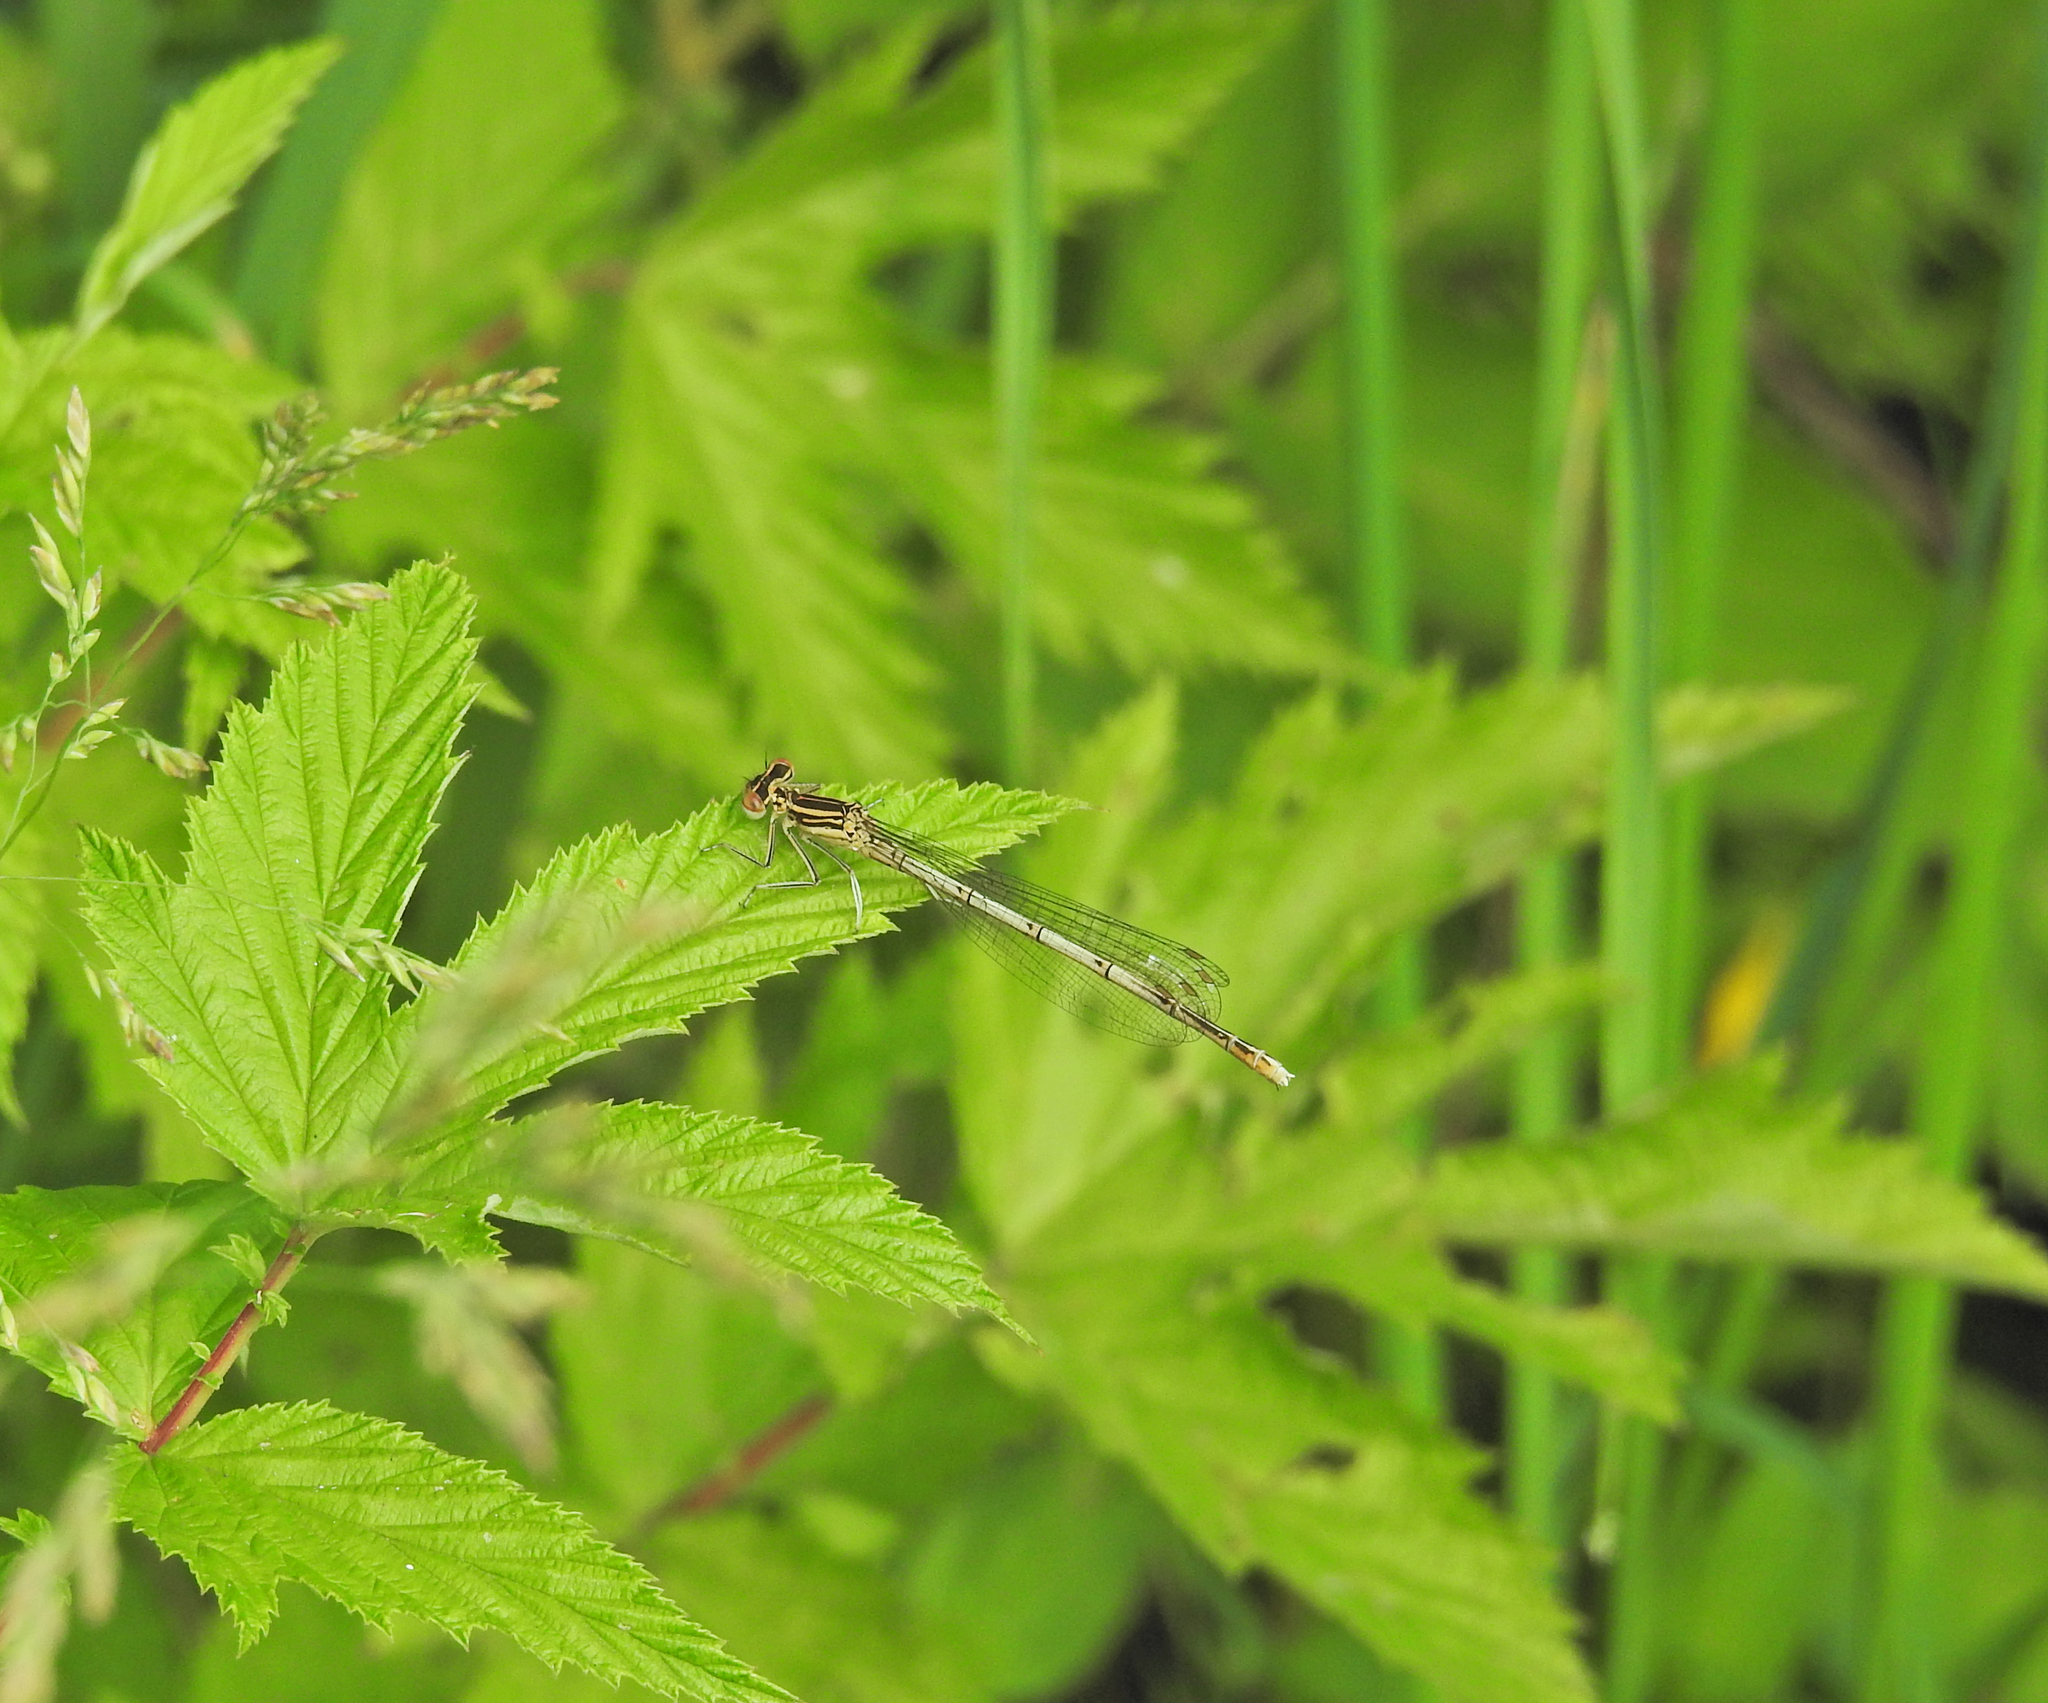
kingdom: Animalia
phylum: Arthropoda
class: Insecta
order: Odonata
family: Platycnemididae
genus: Platycnemis
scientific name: Platycnemis pennipes
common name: White-legged damselfly
